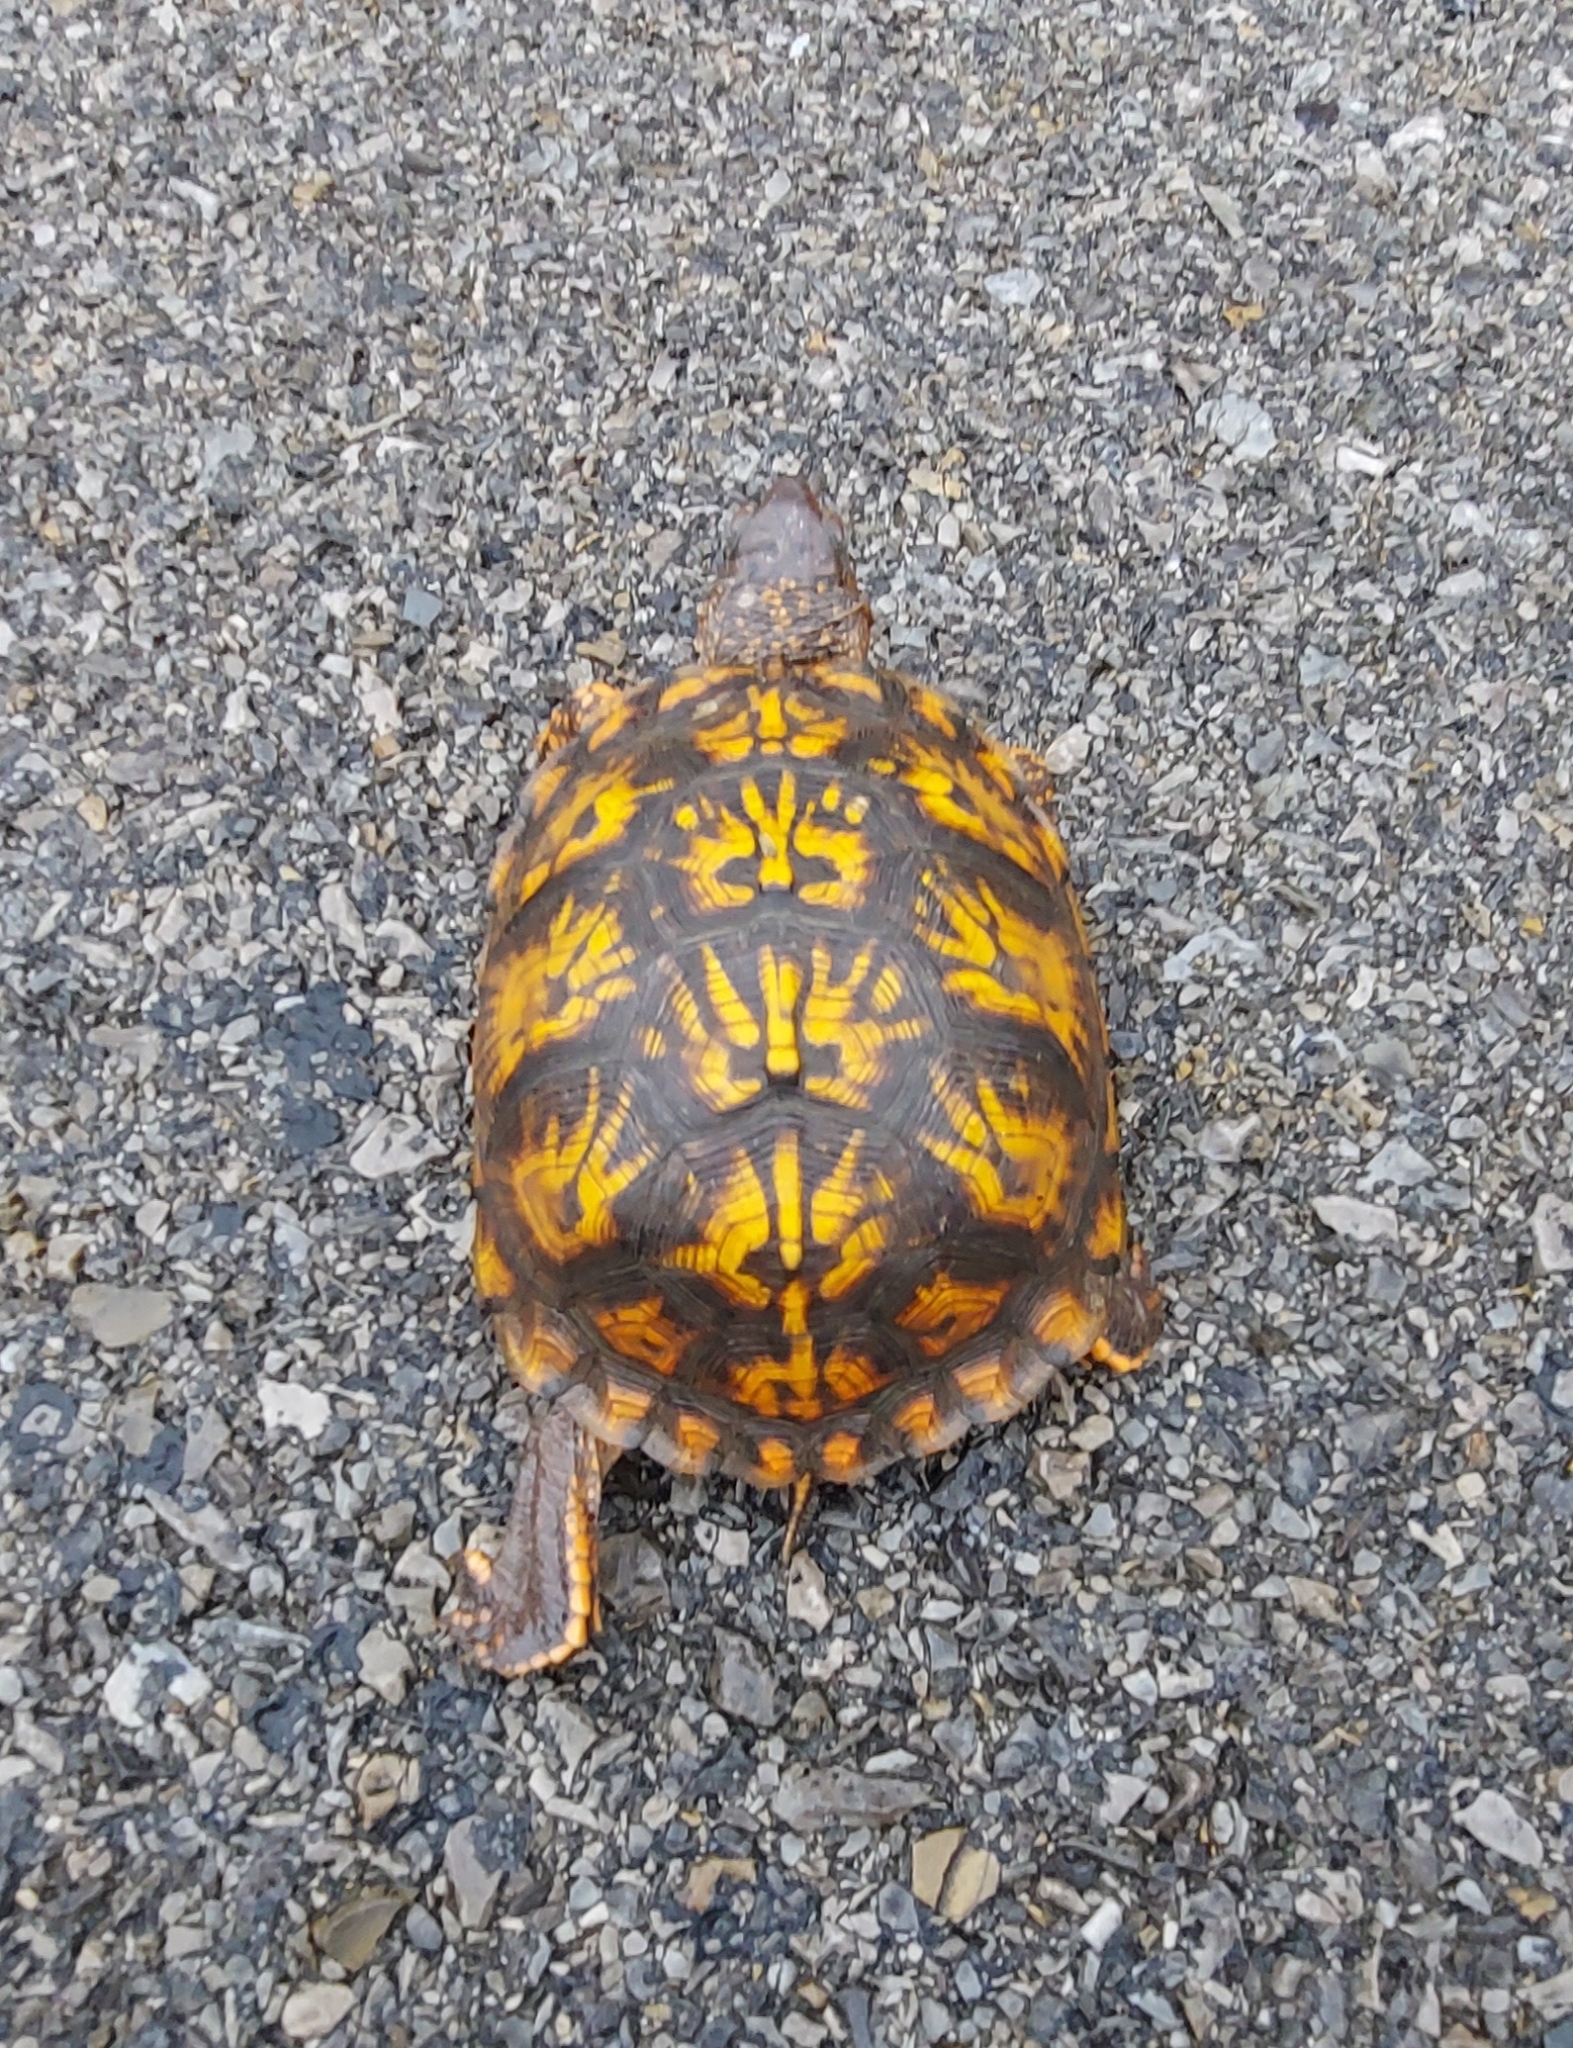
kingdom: Animalia
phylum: Chordata
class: Testudines
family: Emydidae
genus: Terrapene
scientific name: Terrapene carolina
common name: Common box turtle
